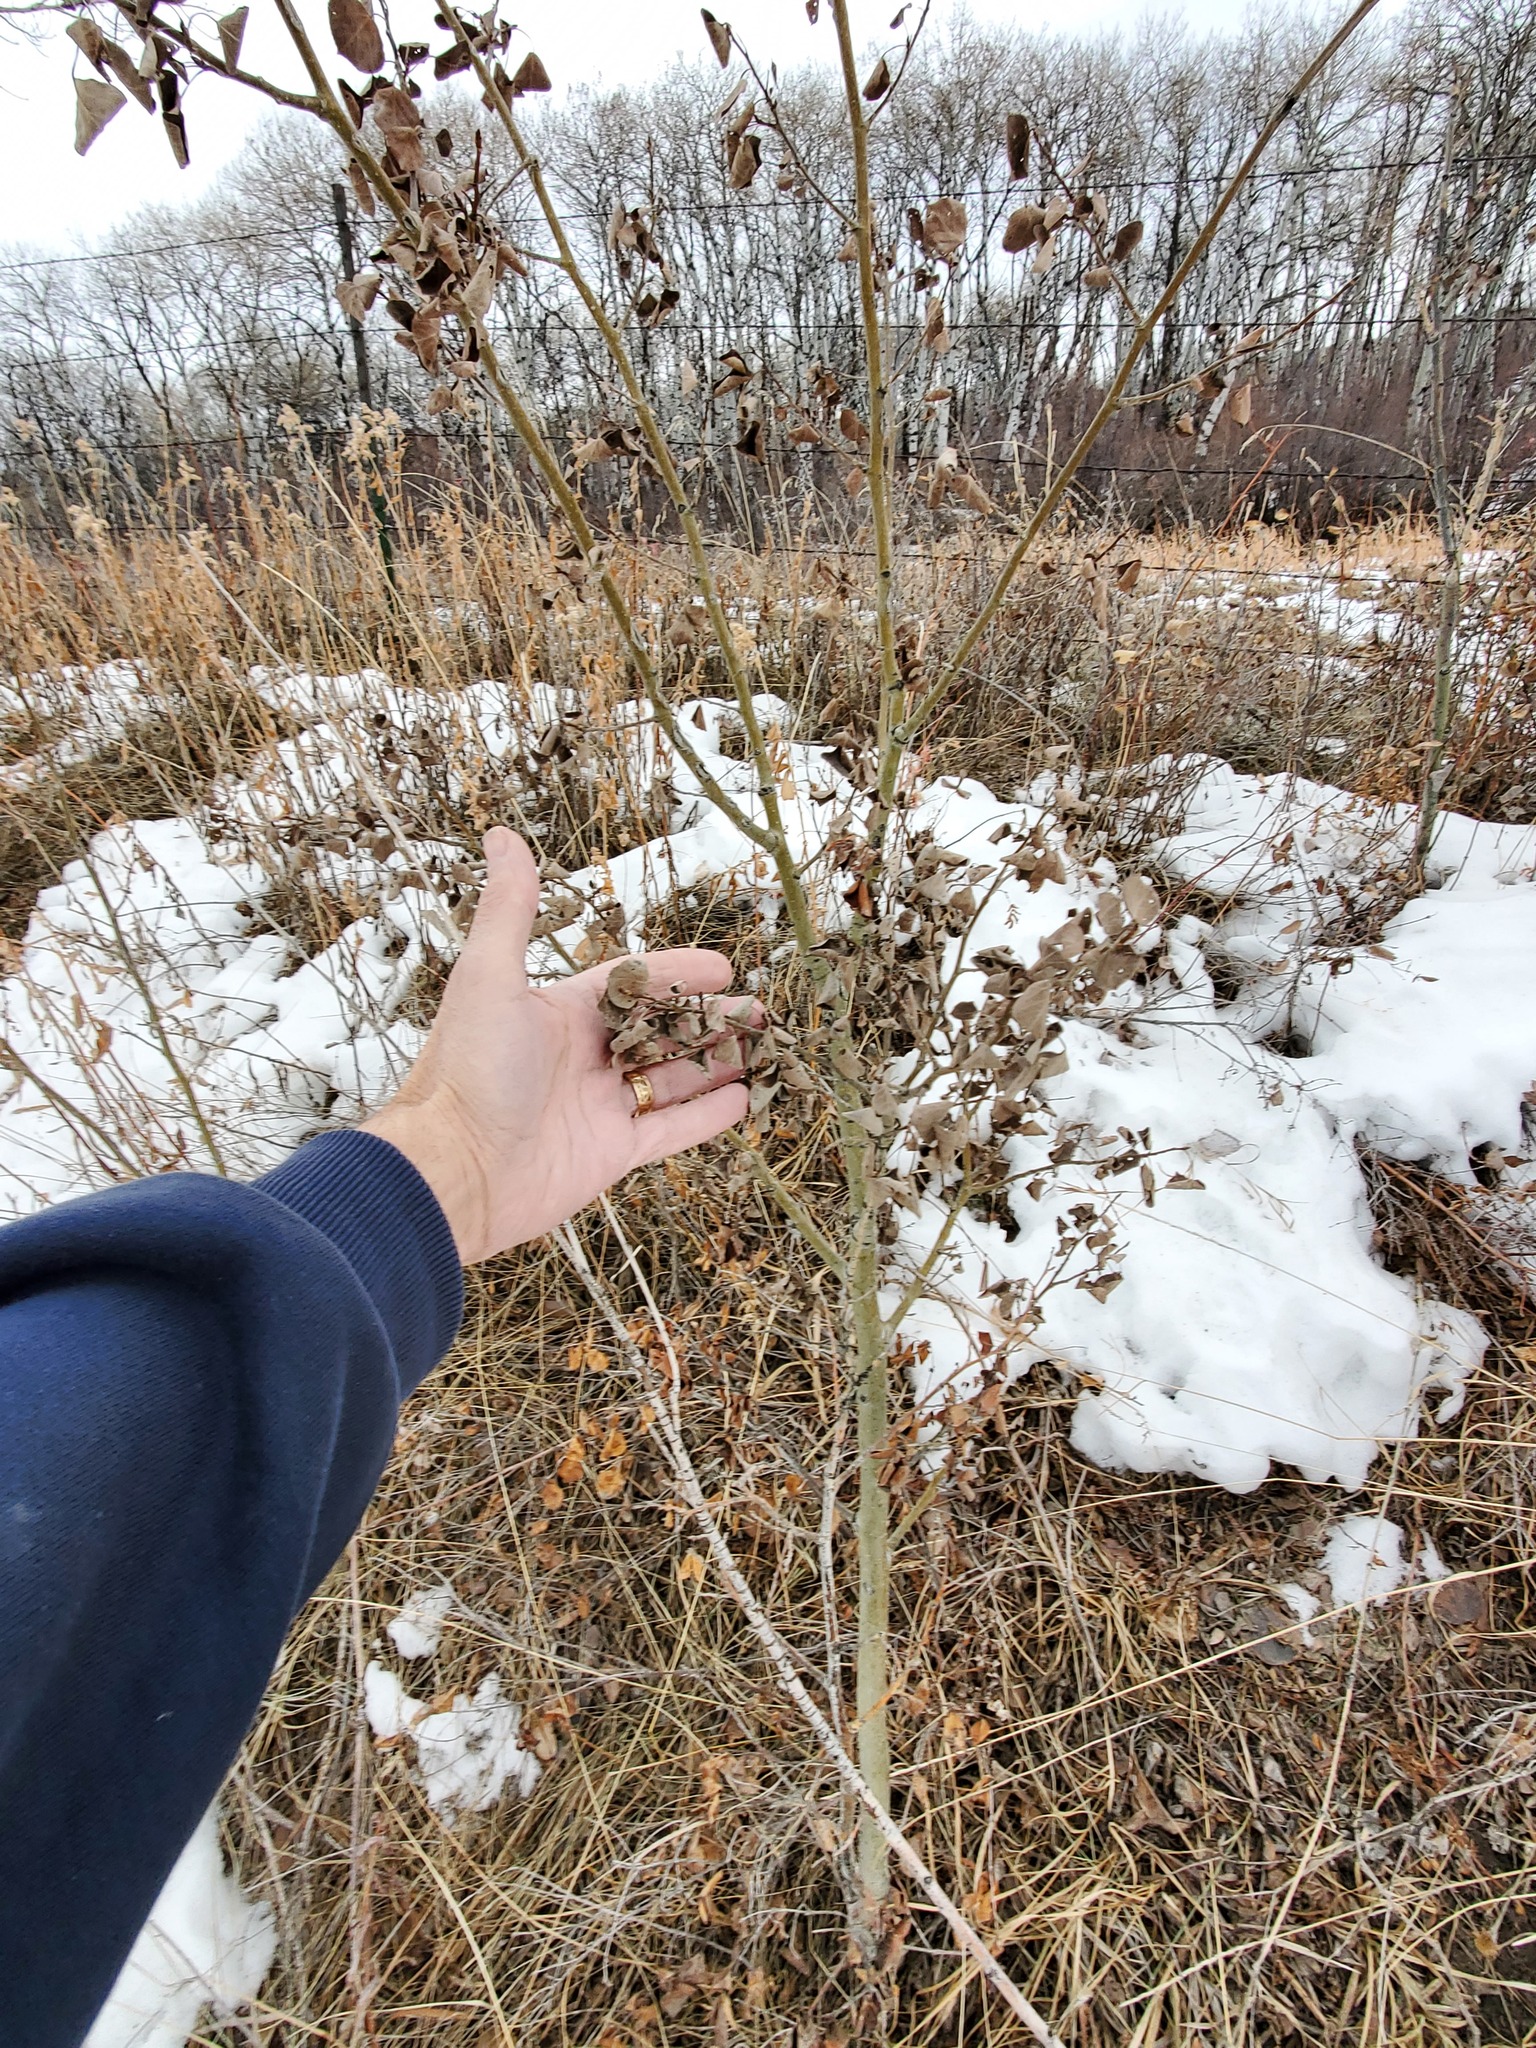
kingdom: Plantae
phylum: Tracheophyta
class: Magnoliopsida
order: Malpighiales
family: Salicaceae
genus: Populus
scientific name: Populus tremuloides
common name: Quaking aspen
